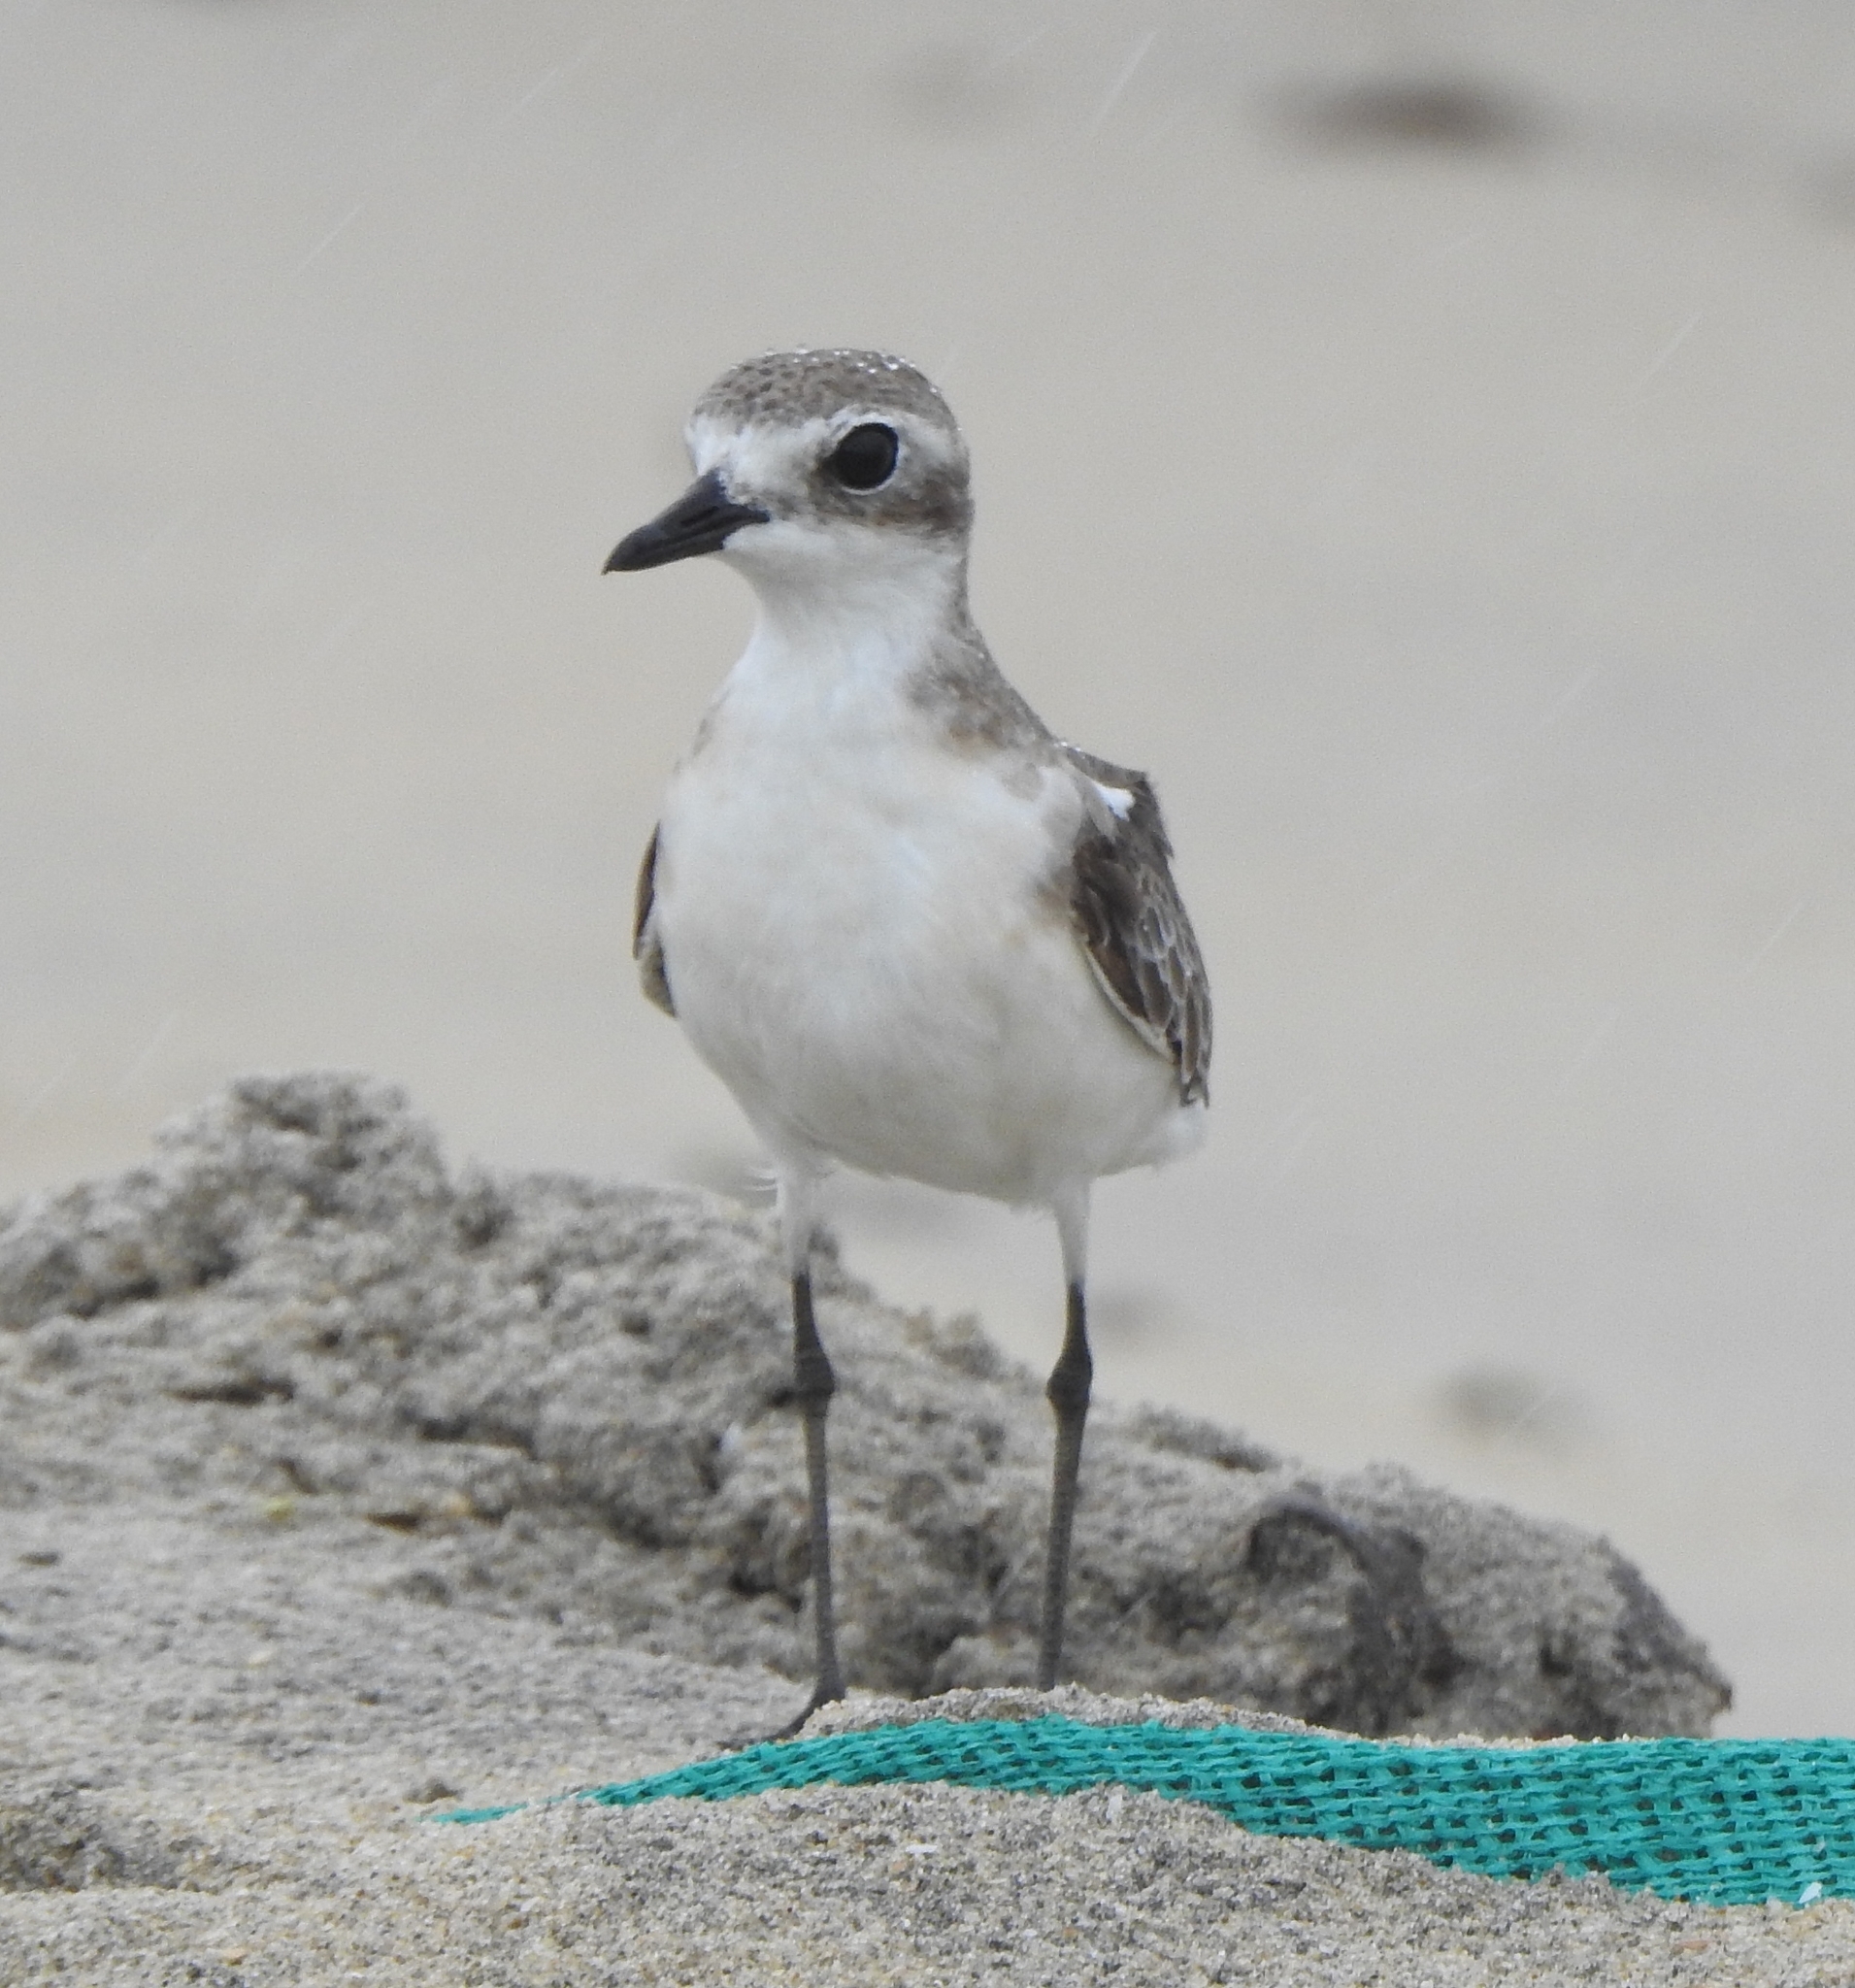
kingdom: Animalia
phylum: Chordata
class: Aves
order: Charadriiformes
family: Charadriidae
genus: Anarhynchus
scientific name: Anarhynchus
